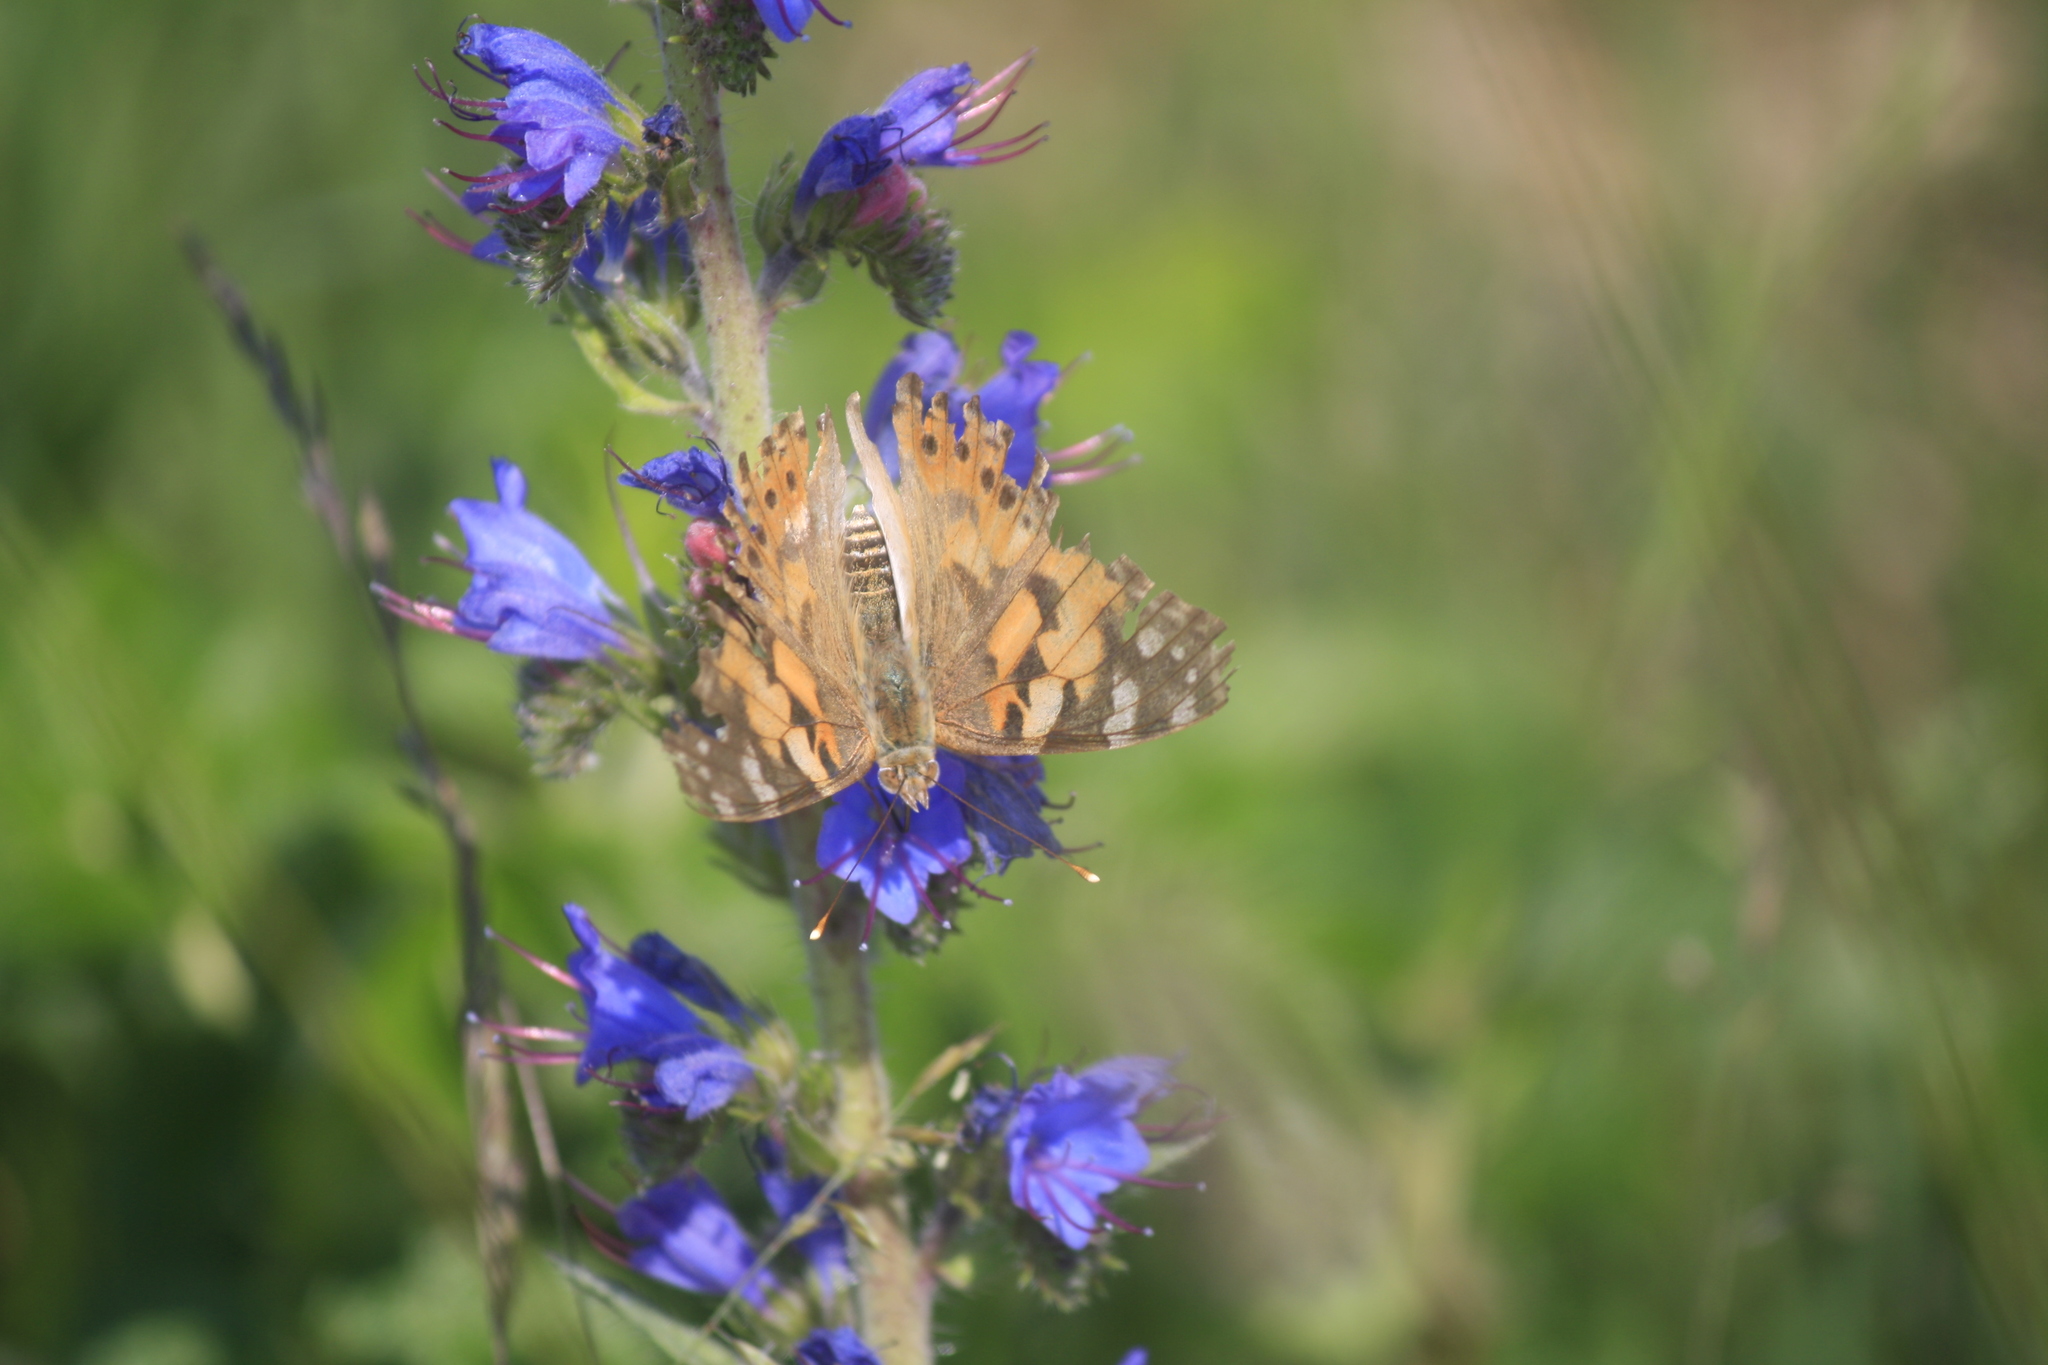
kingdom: Animalia
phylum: Arthropoda
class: Insecta
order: Lepidoptera
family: Nymphalidae
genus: Vanessa
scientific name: Vanessa cardui
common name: Painted lady
